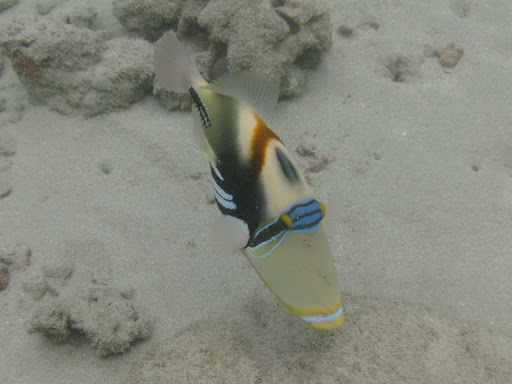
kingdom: Animalia
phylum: Chordata
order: Tetraodontiformes
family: Balistidae
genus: Rhinecanthus
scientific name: Rhinecanthus aculeatus
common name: White-banded triggerfish
